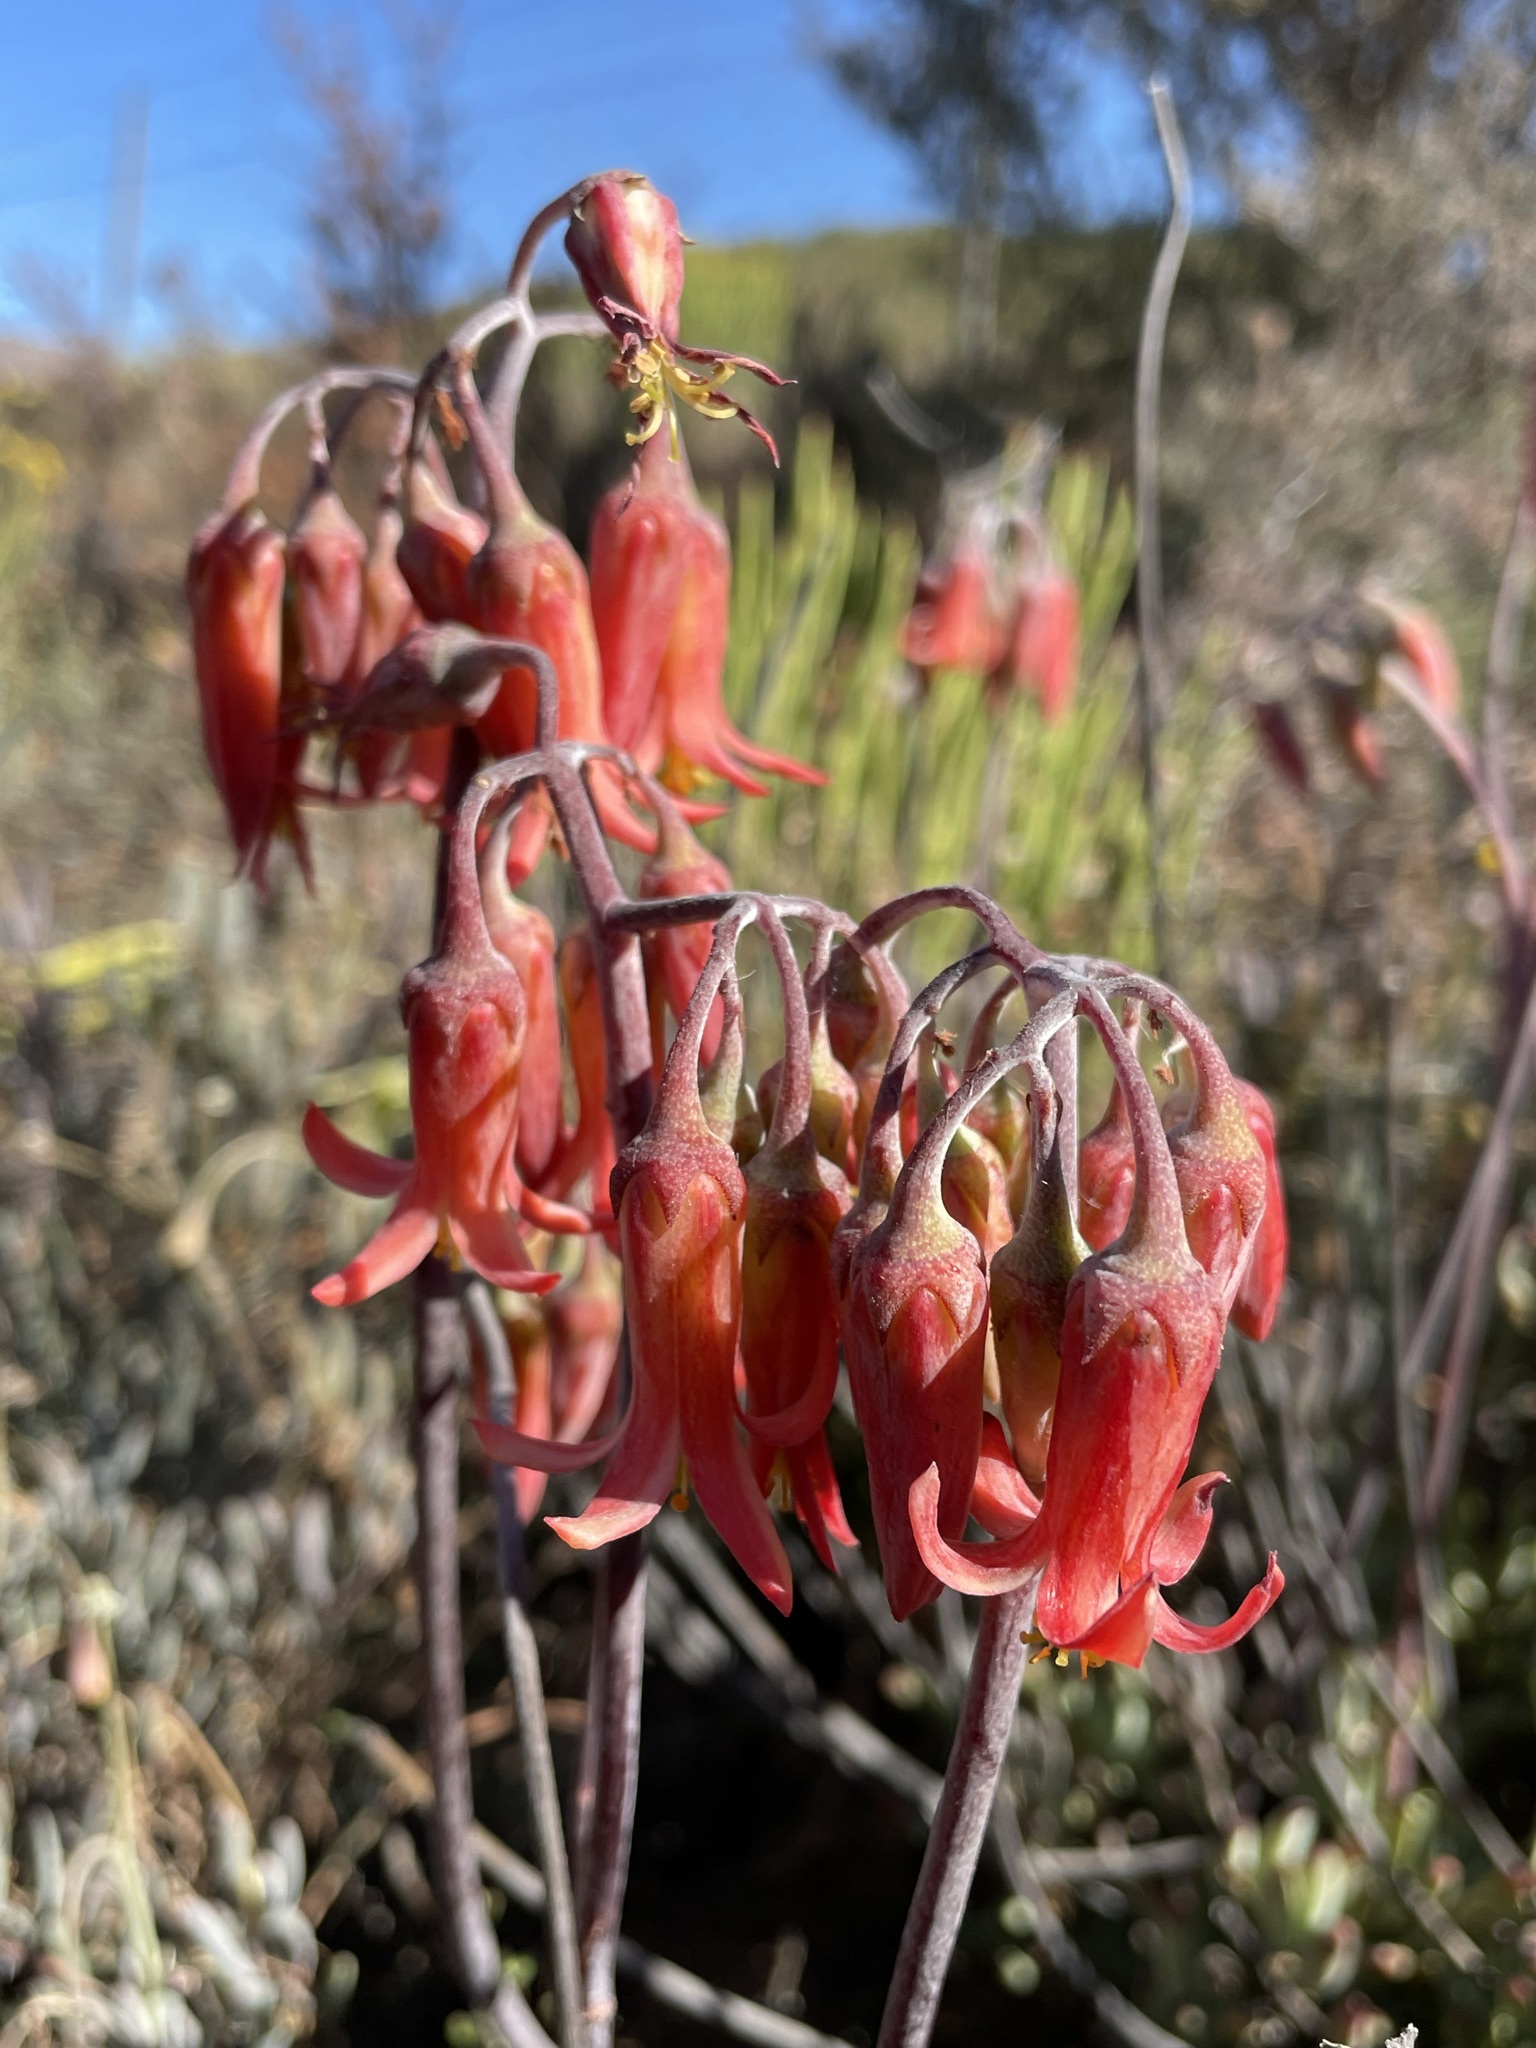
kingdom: Plantae
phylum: Tracheophyta
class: Magnoliopsida
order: Saxifragales
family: Crassulaceae
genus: Cotyledon
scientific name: Cotyledon orbiculata
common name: Pig's ear
